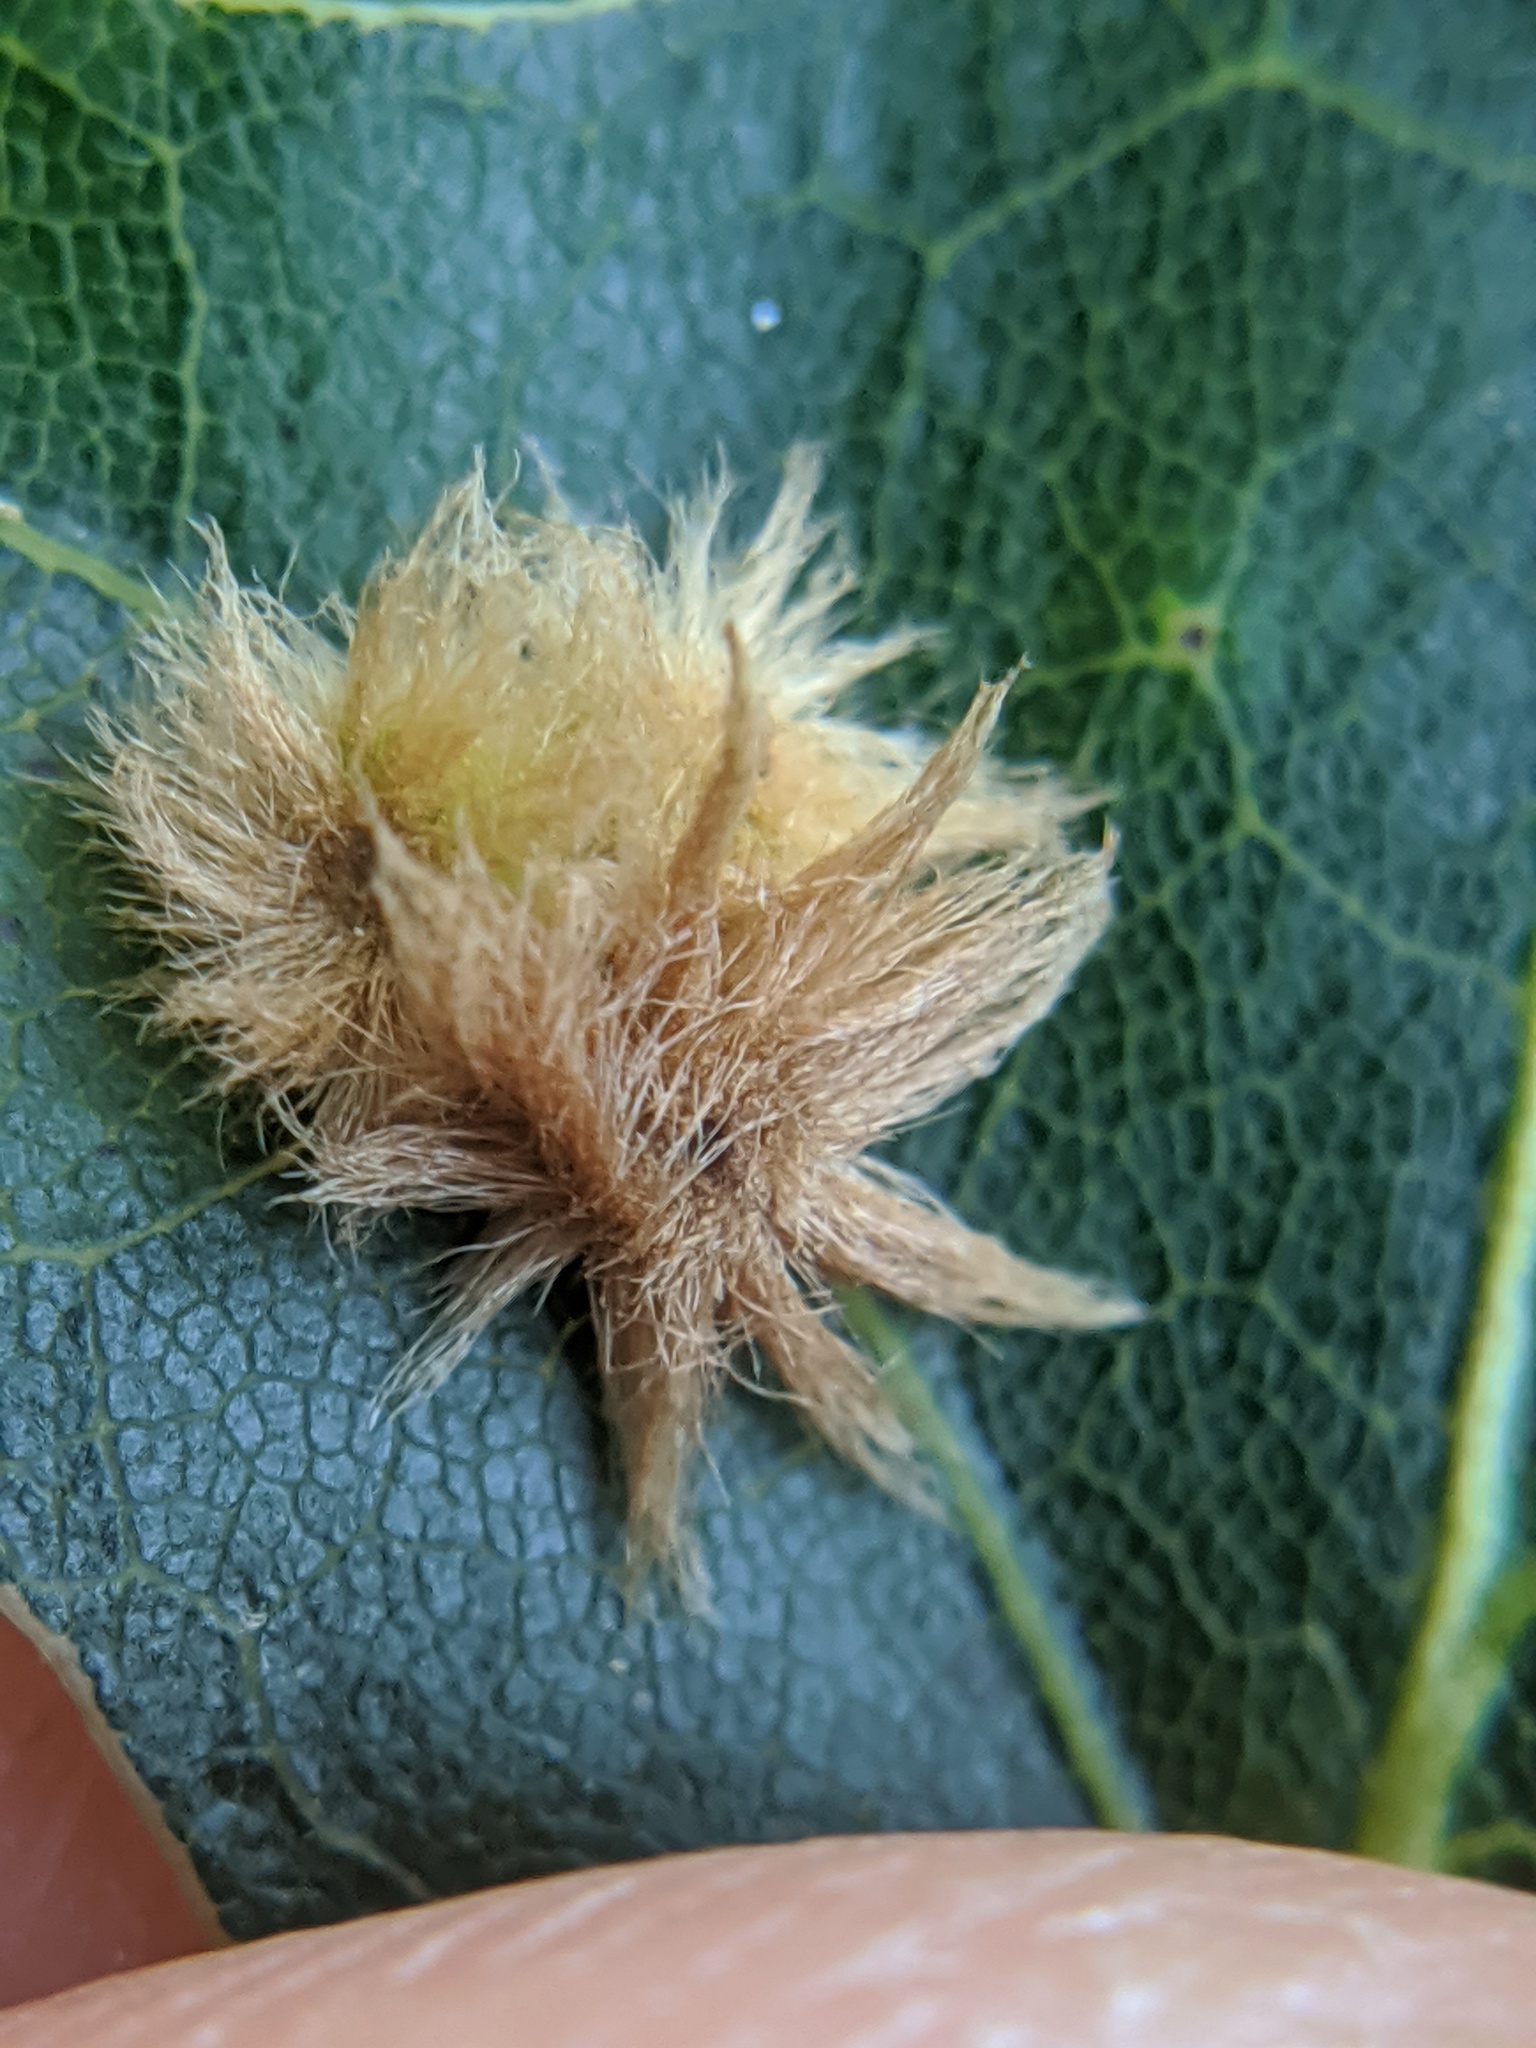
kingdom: Animalia
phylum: Arthropoda
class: Insecta
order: Hymenoptera
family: Cynipidae
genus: Callirhytis
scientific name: Callirhytis
